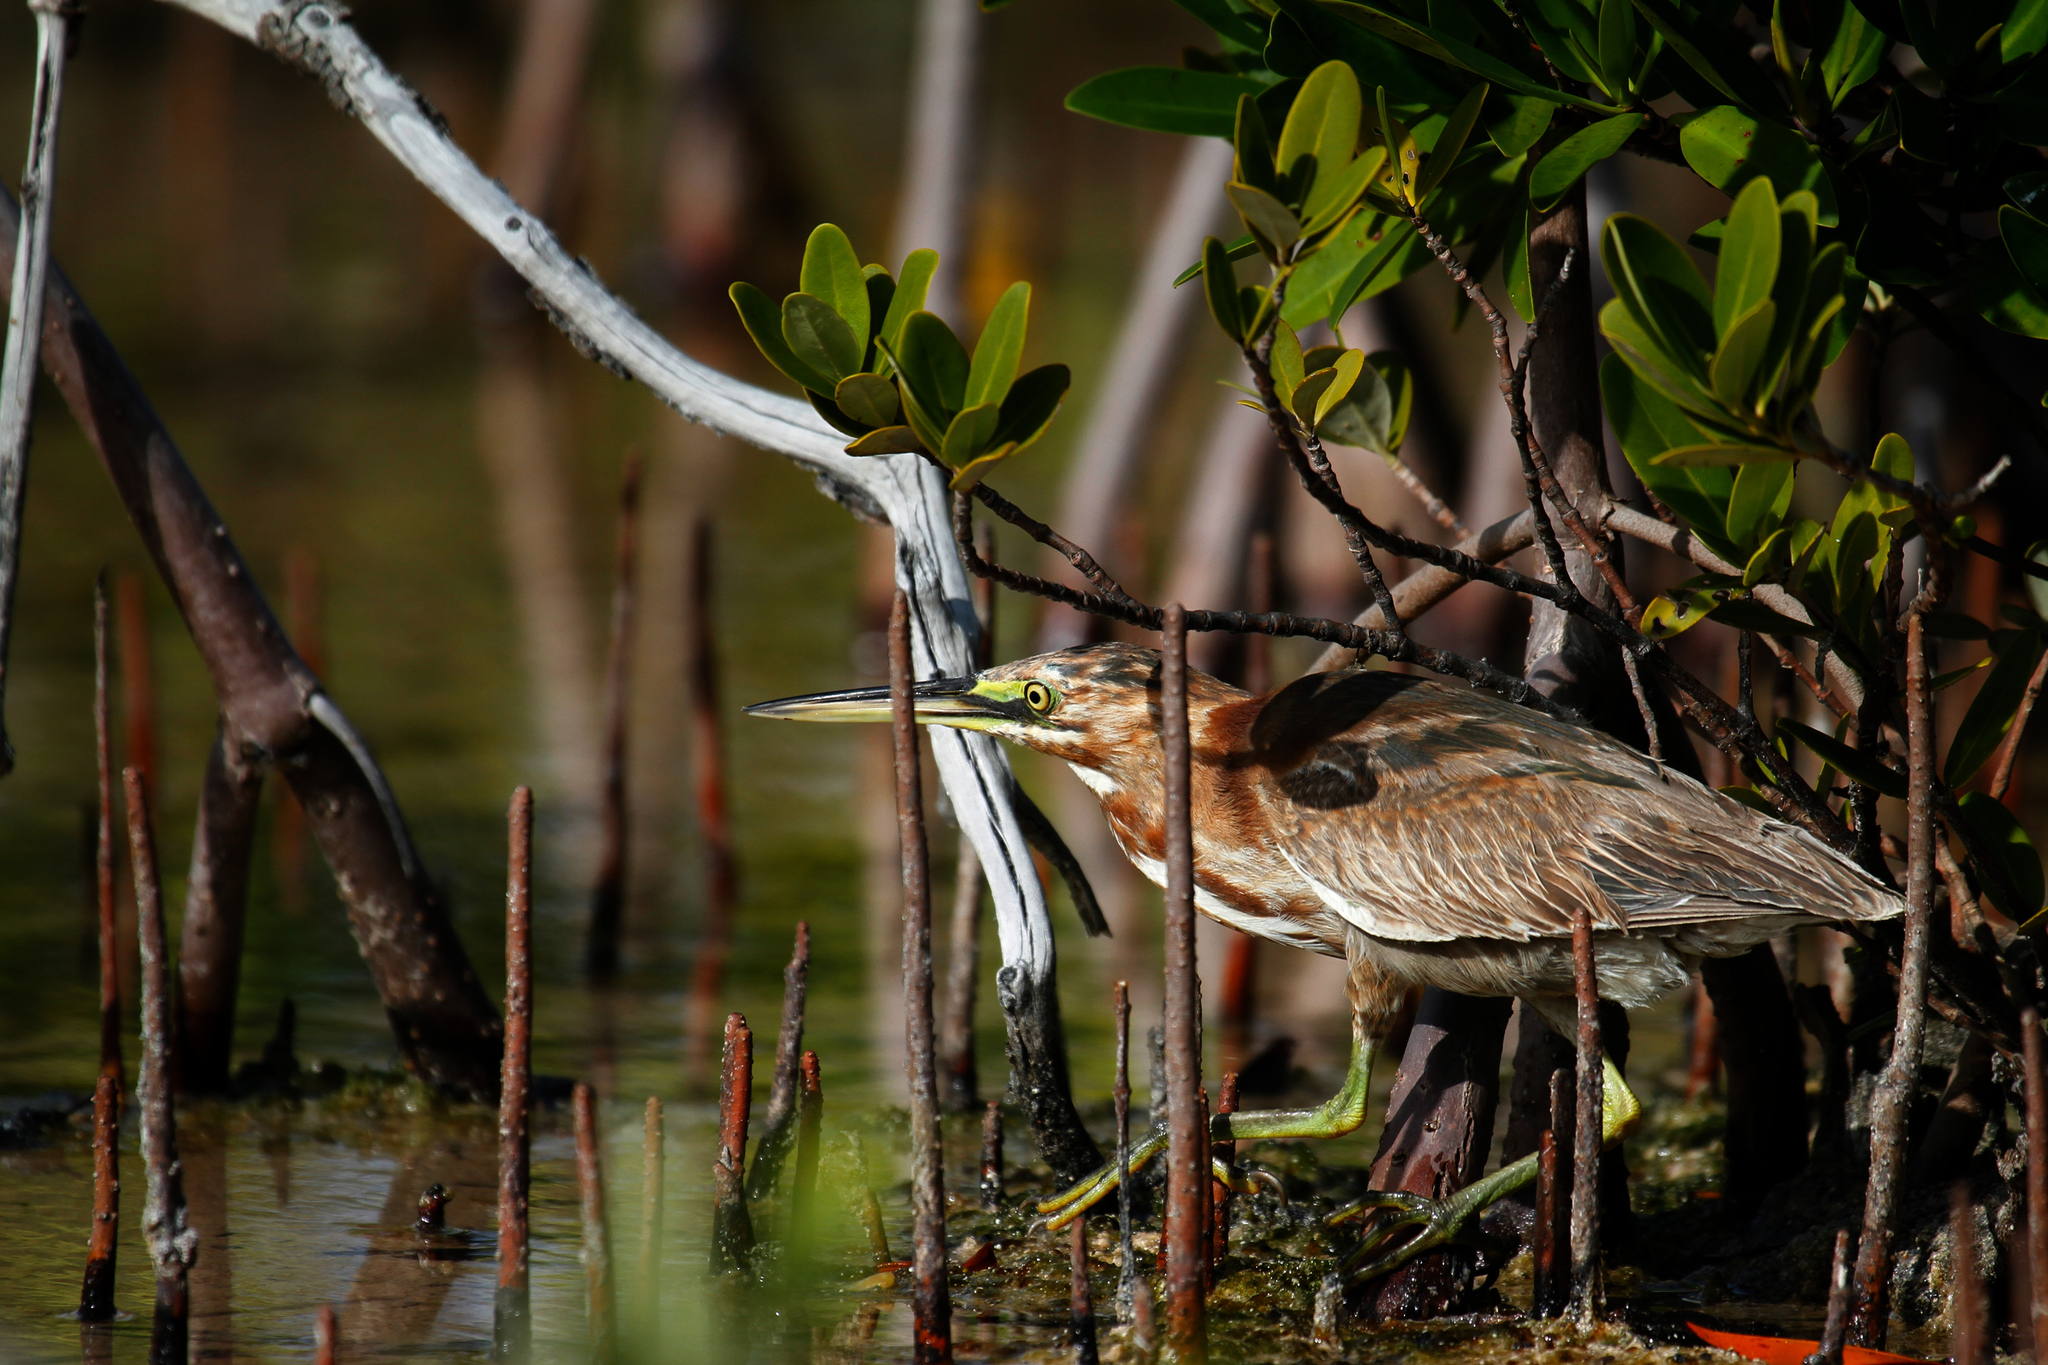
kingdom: Animalia
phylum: Chordata
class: Aves
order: Pelecaniformes
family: Ardeidae
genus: Butorides
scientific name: Butorides virescens
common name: Green heron
